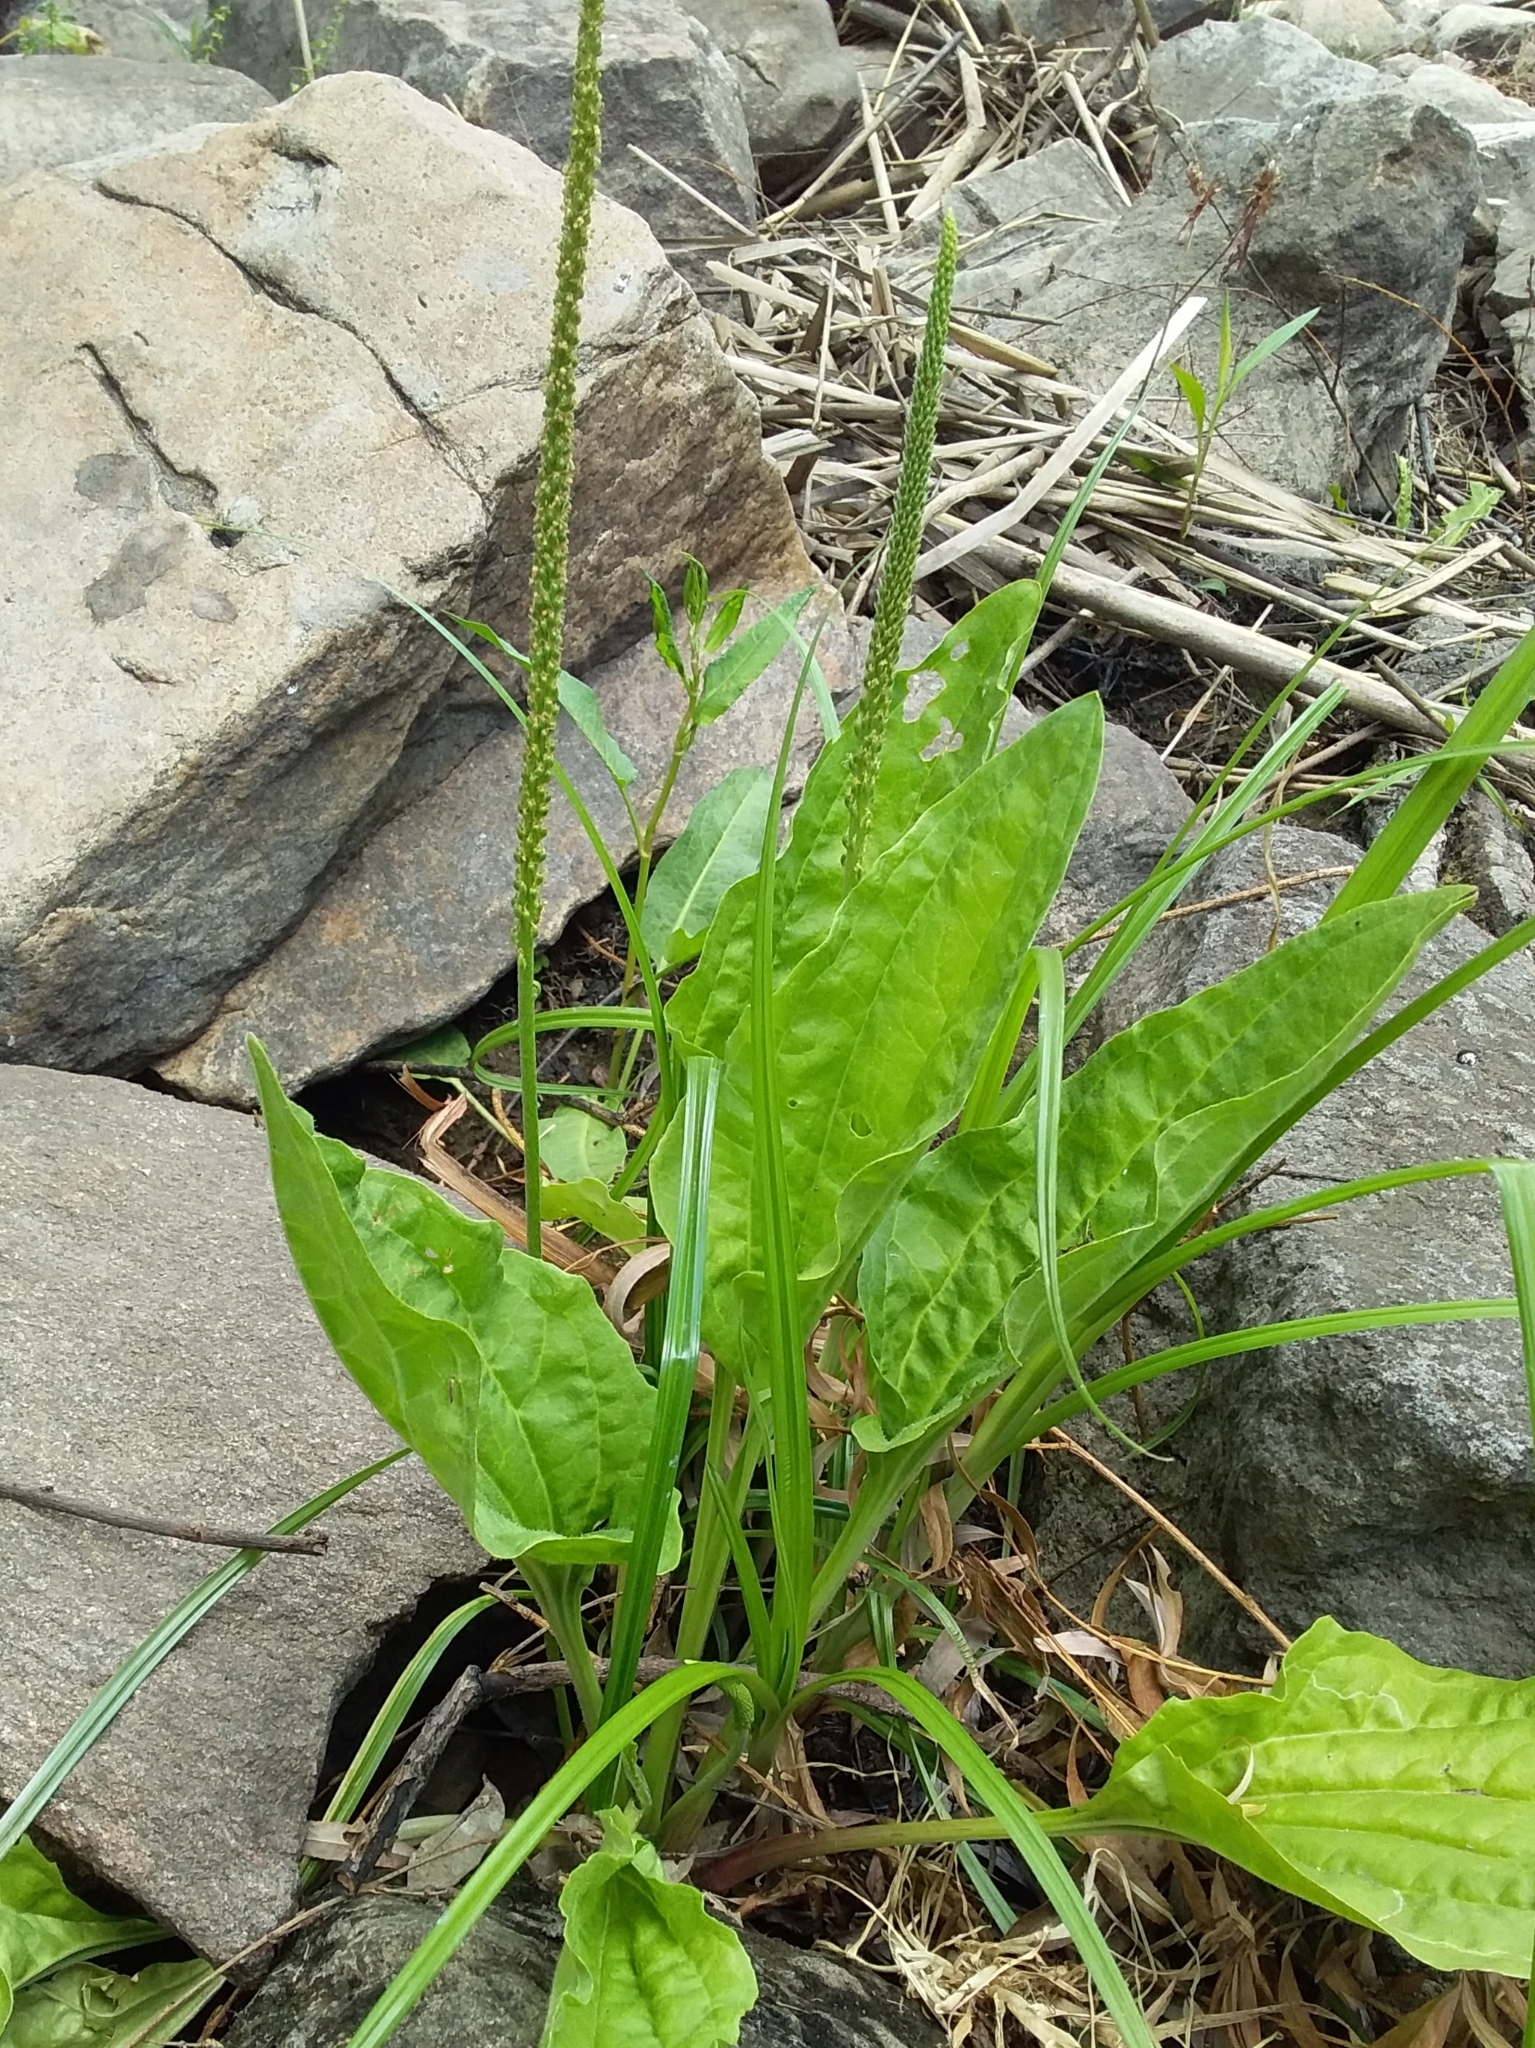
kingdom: Plantae
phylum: Tracheophyta
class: Magnoliopsida
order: Lamiales
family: Plantaginaceae
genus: Plantago
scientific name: Plantago major
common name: Common plantain
